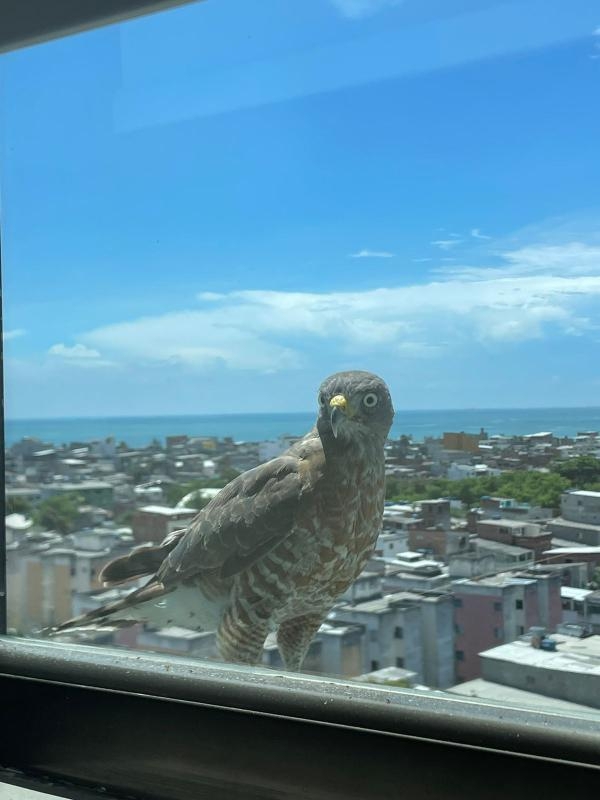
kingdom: Animalia
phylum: Chordata
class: Aves
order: Accipitriformes
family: Accipitridae
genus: Rupornis
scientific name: Rupornis magnirostris
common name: Roadside hawk
